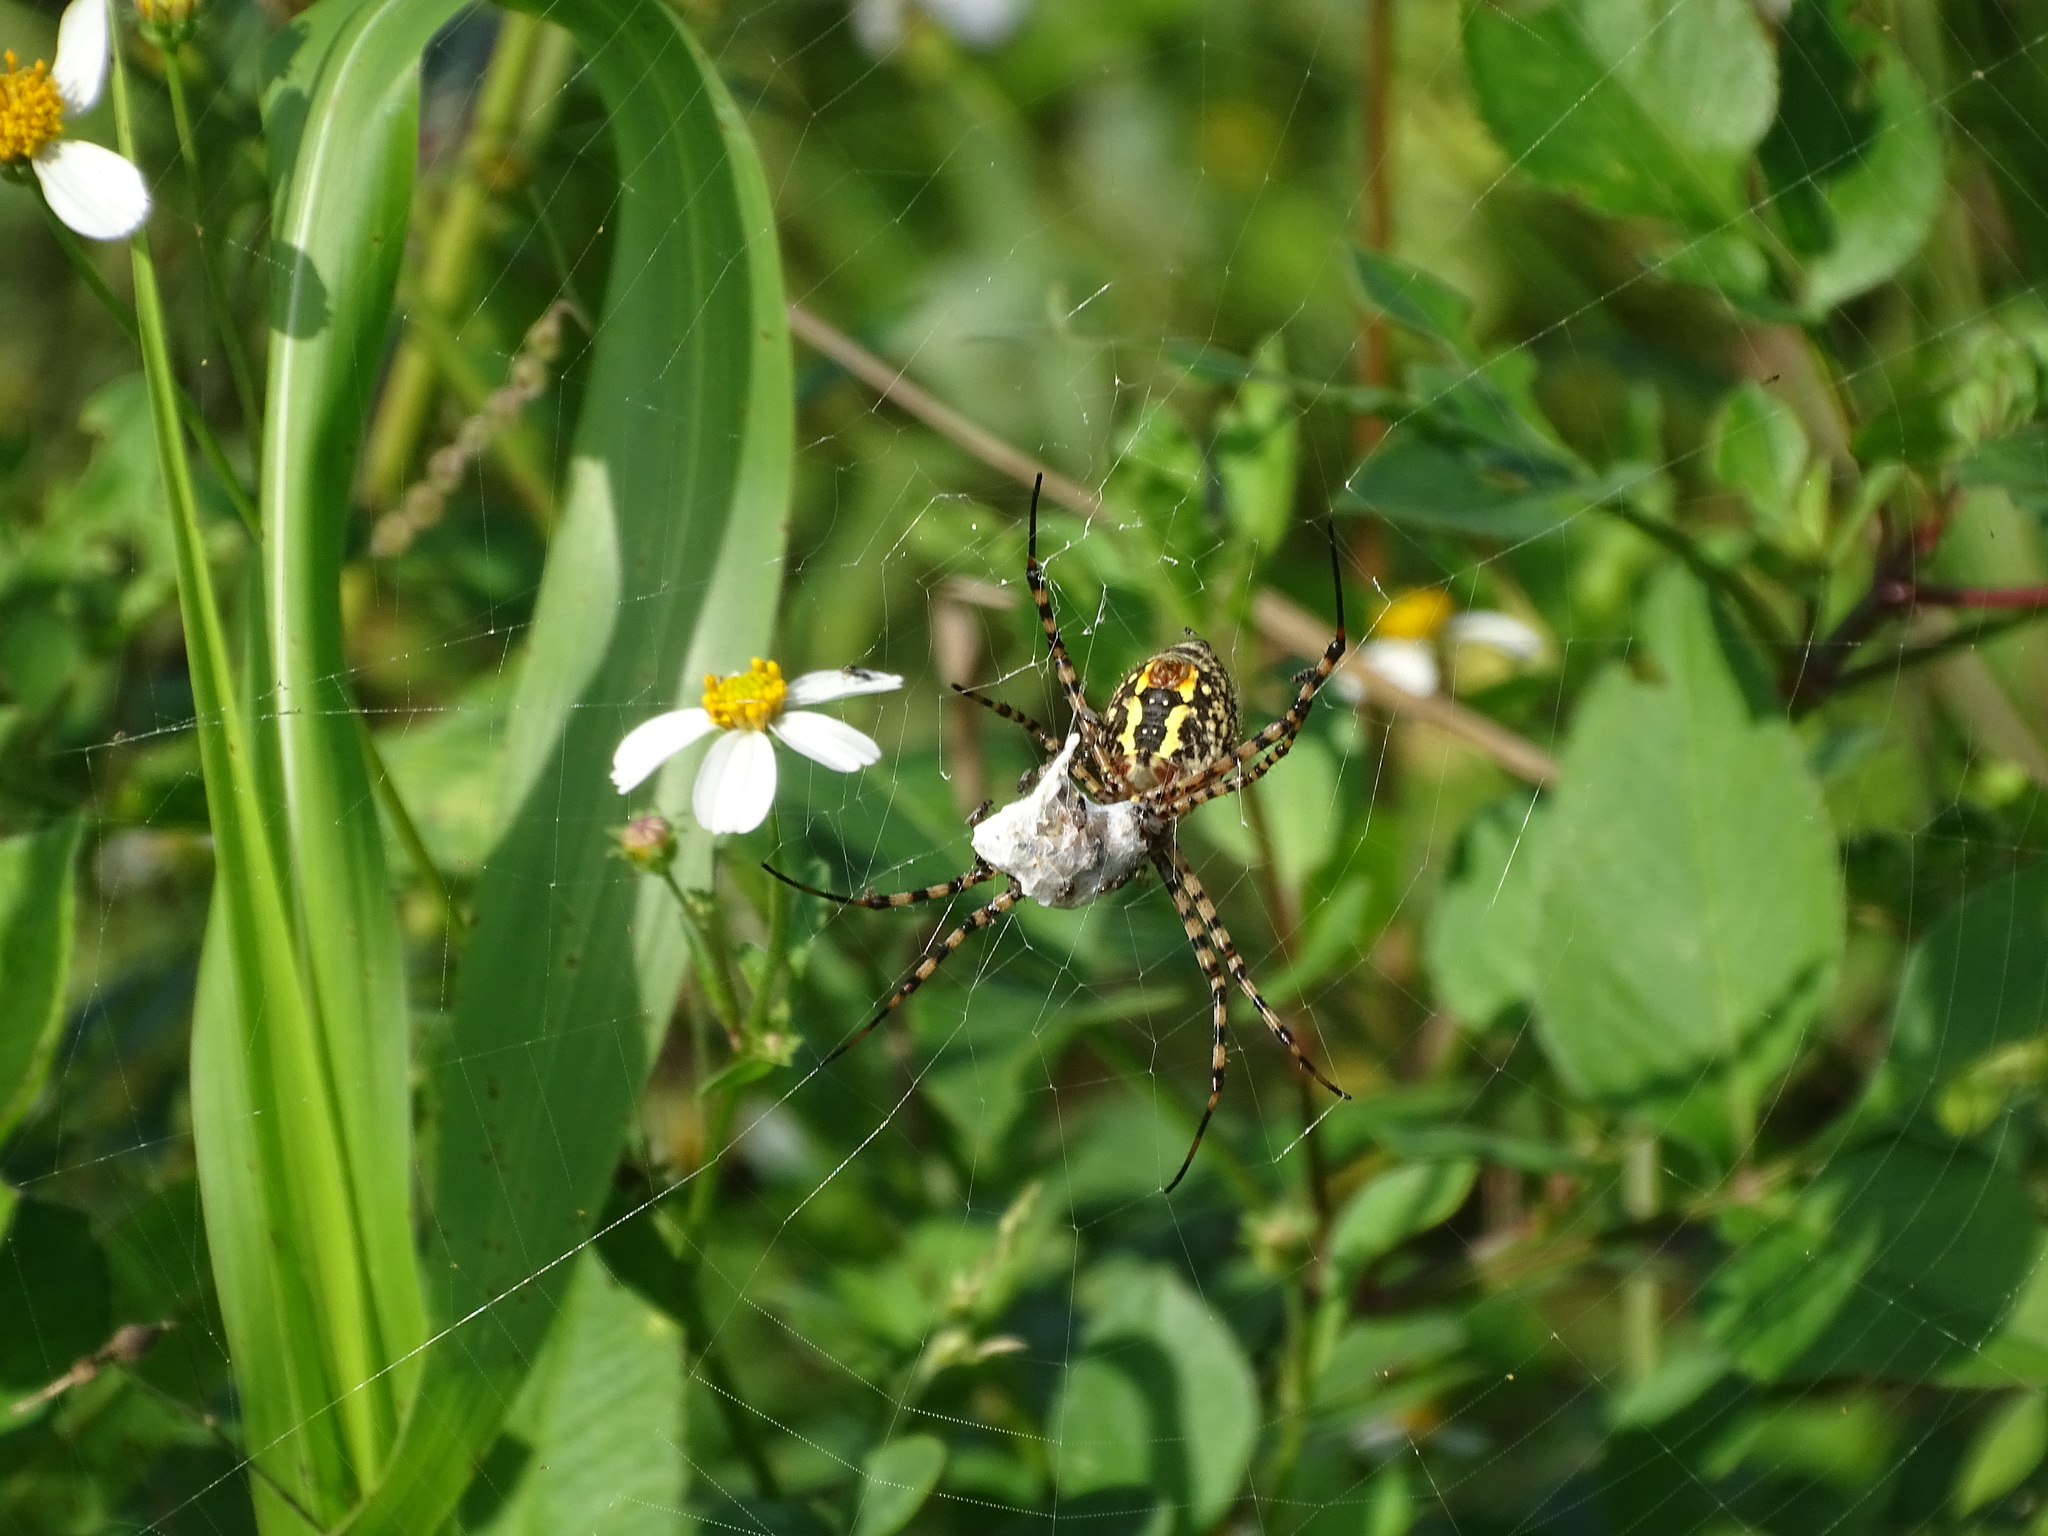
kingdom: Animalia
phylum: Arthropoda
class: Arachnida
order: Araneae
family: Araneidae
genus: Argiope
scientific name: Argiope trifasciata
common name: Banded garden spider
